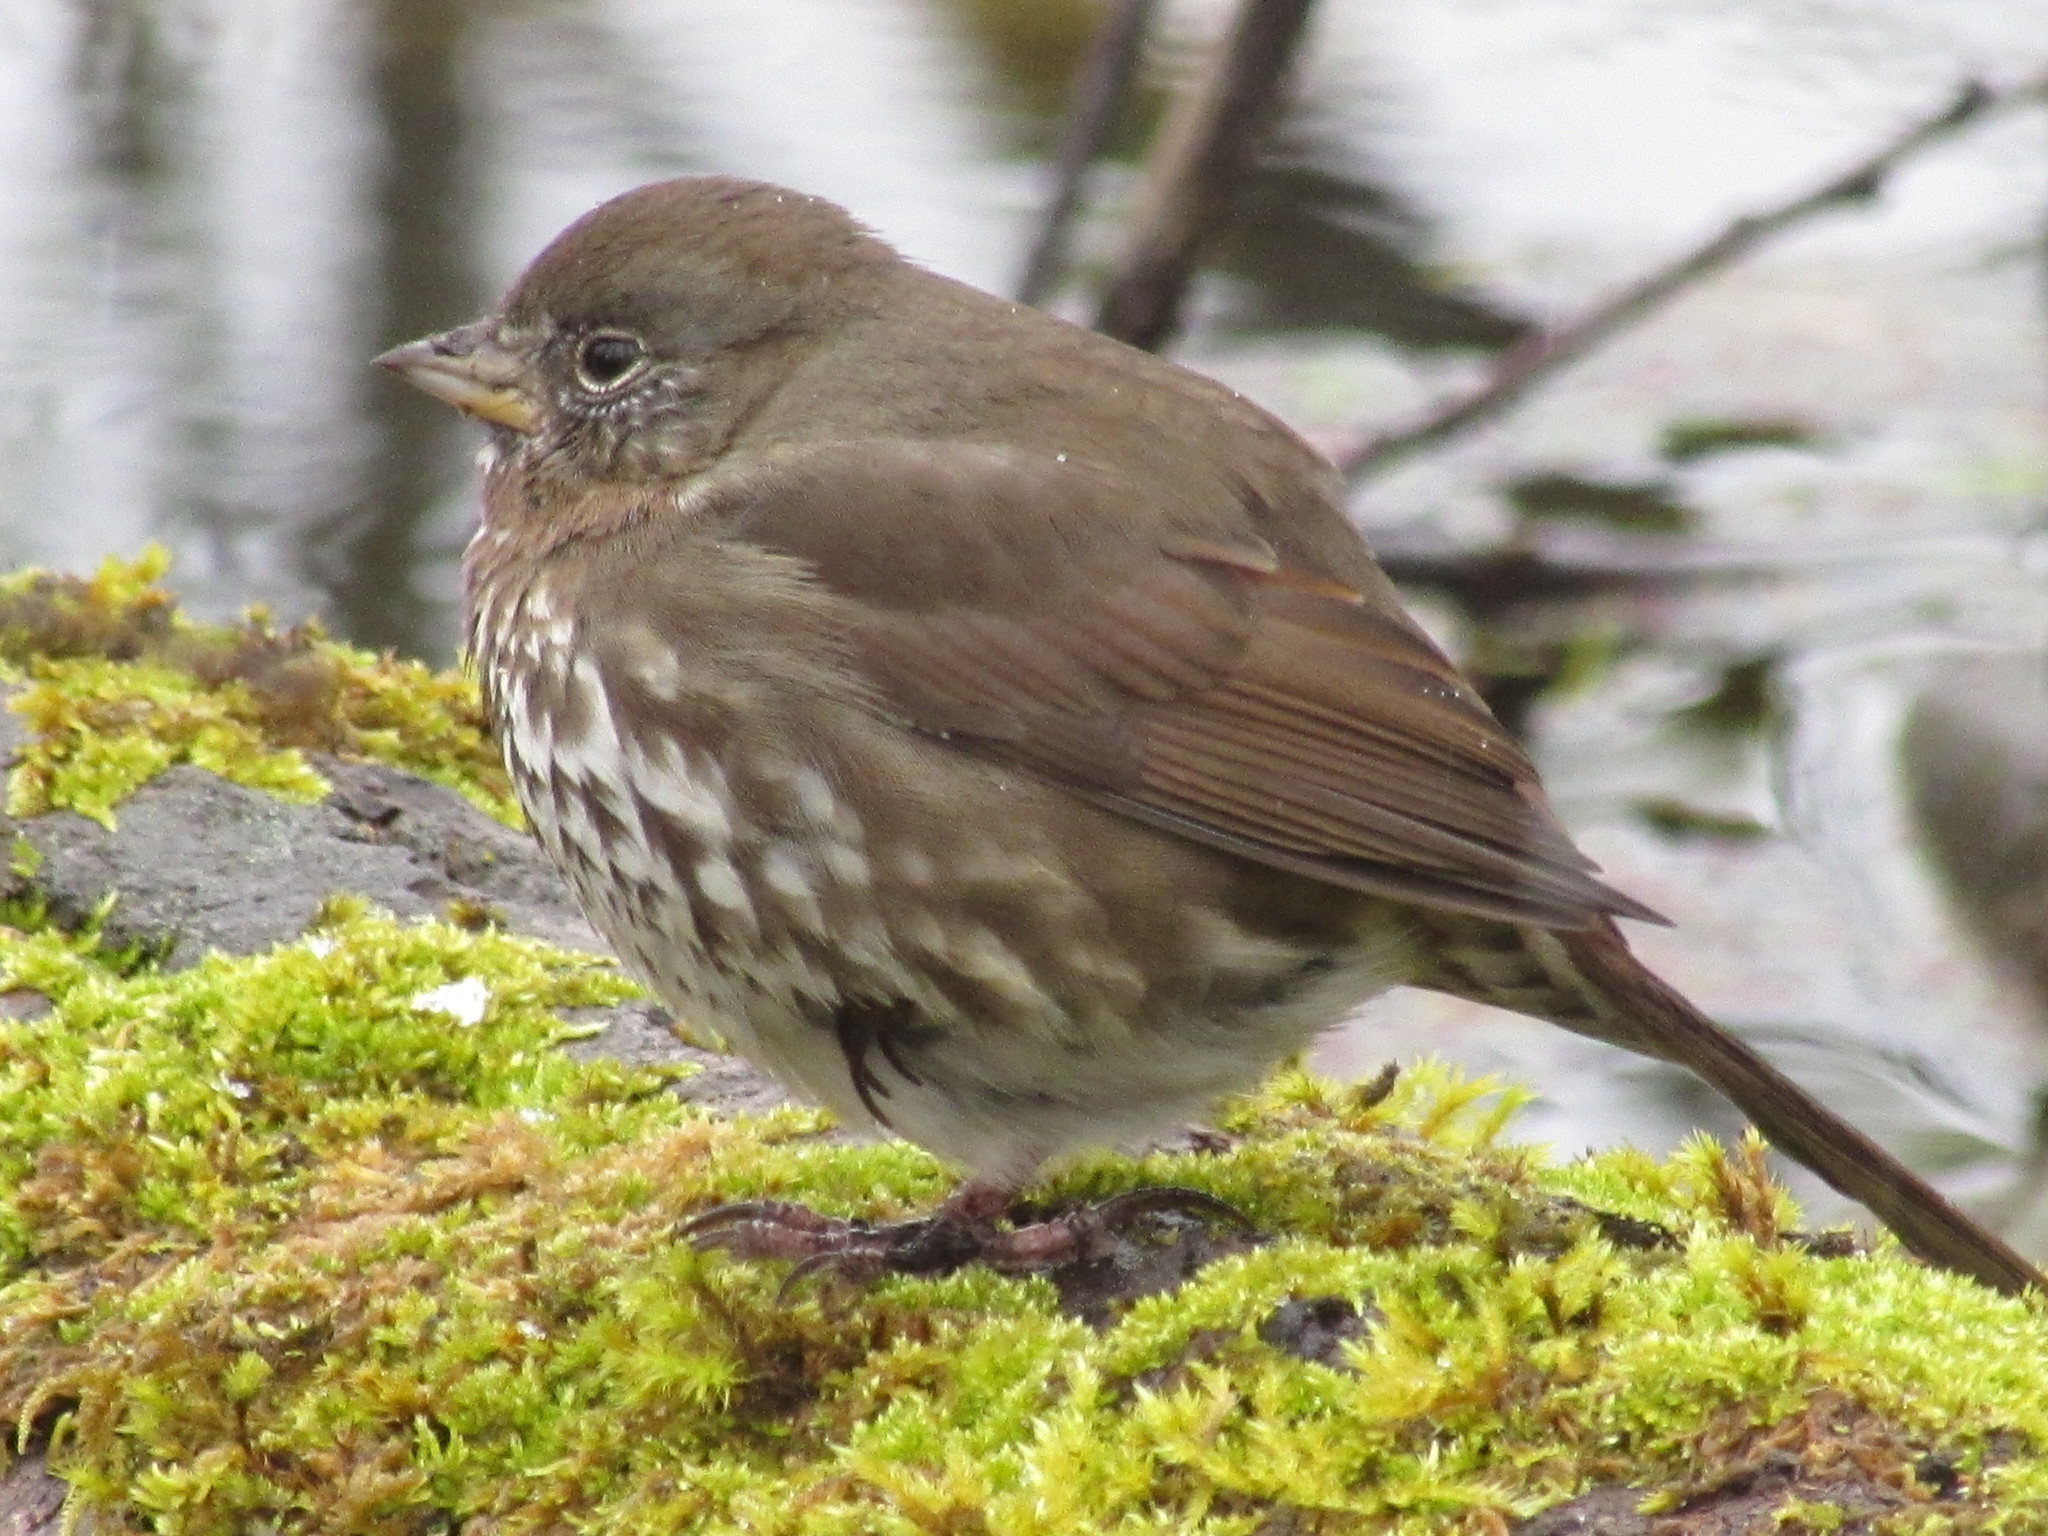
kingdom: Animalia
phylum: Chordata
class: Aves
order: Passeriformes
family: Passerellidae
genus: Passerella
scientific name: Passerella iliaca
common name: Fox sparrow
